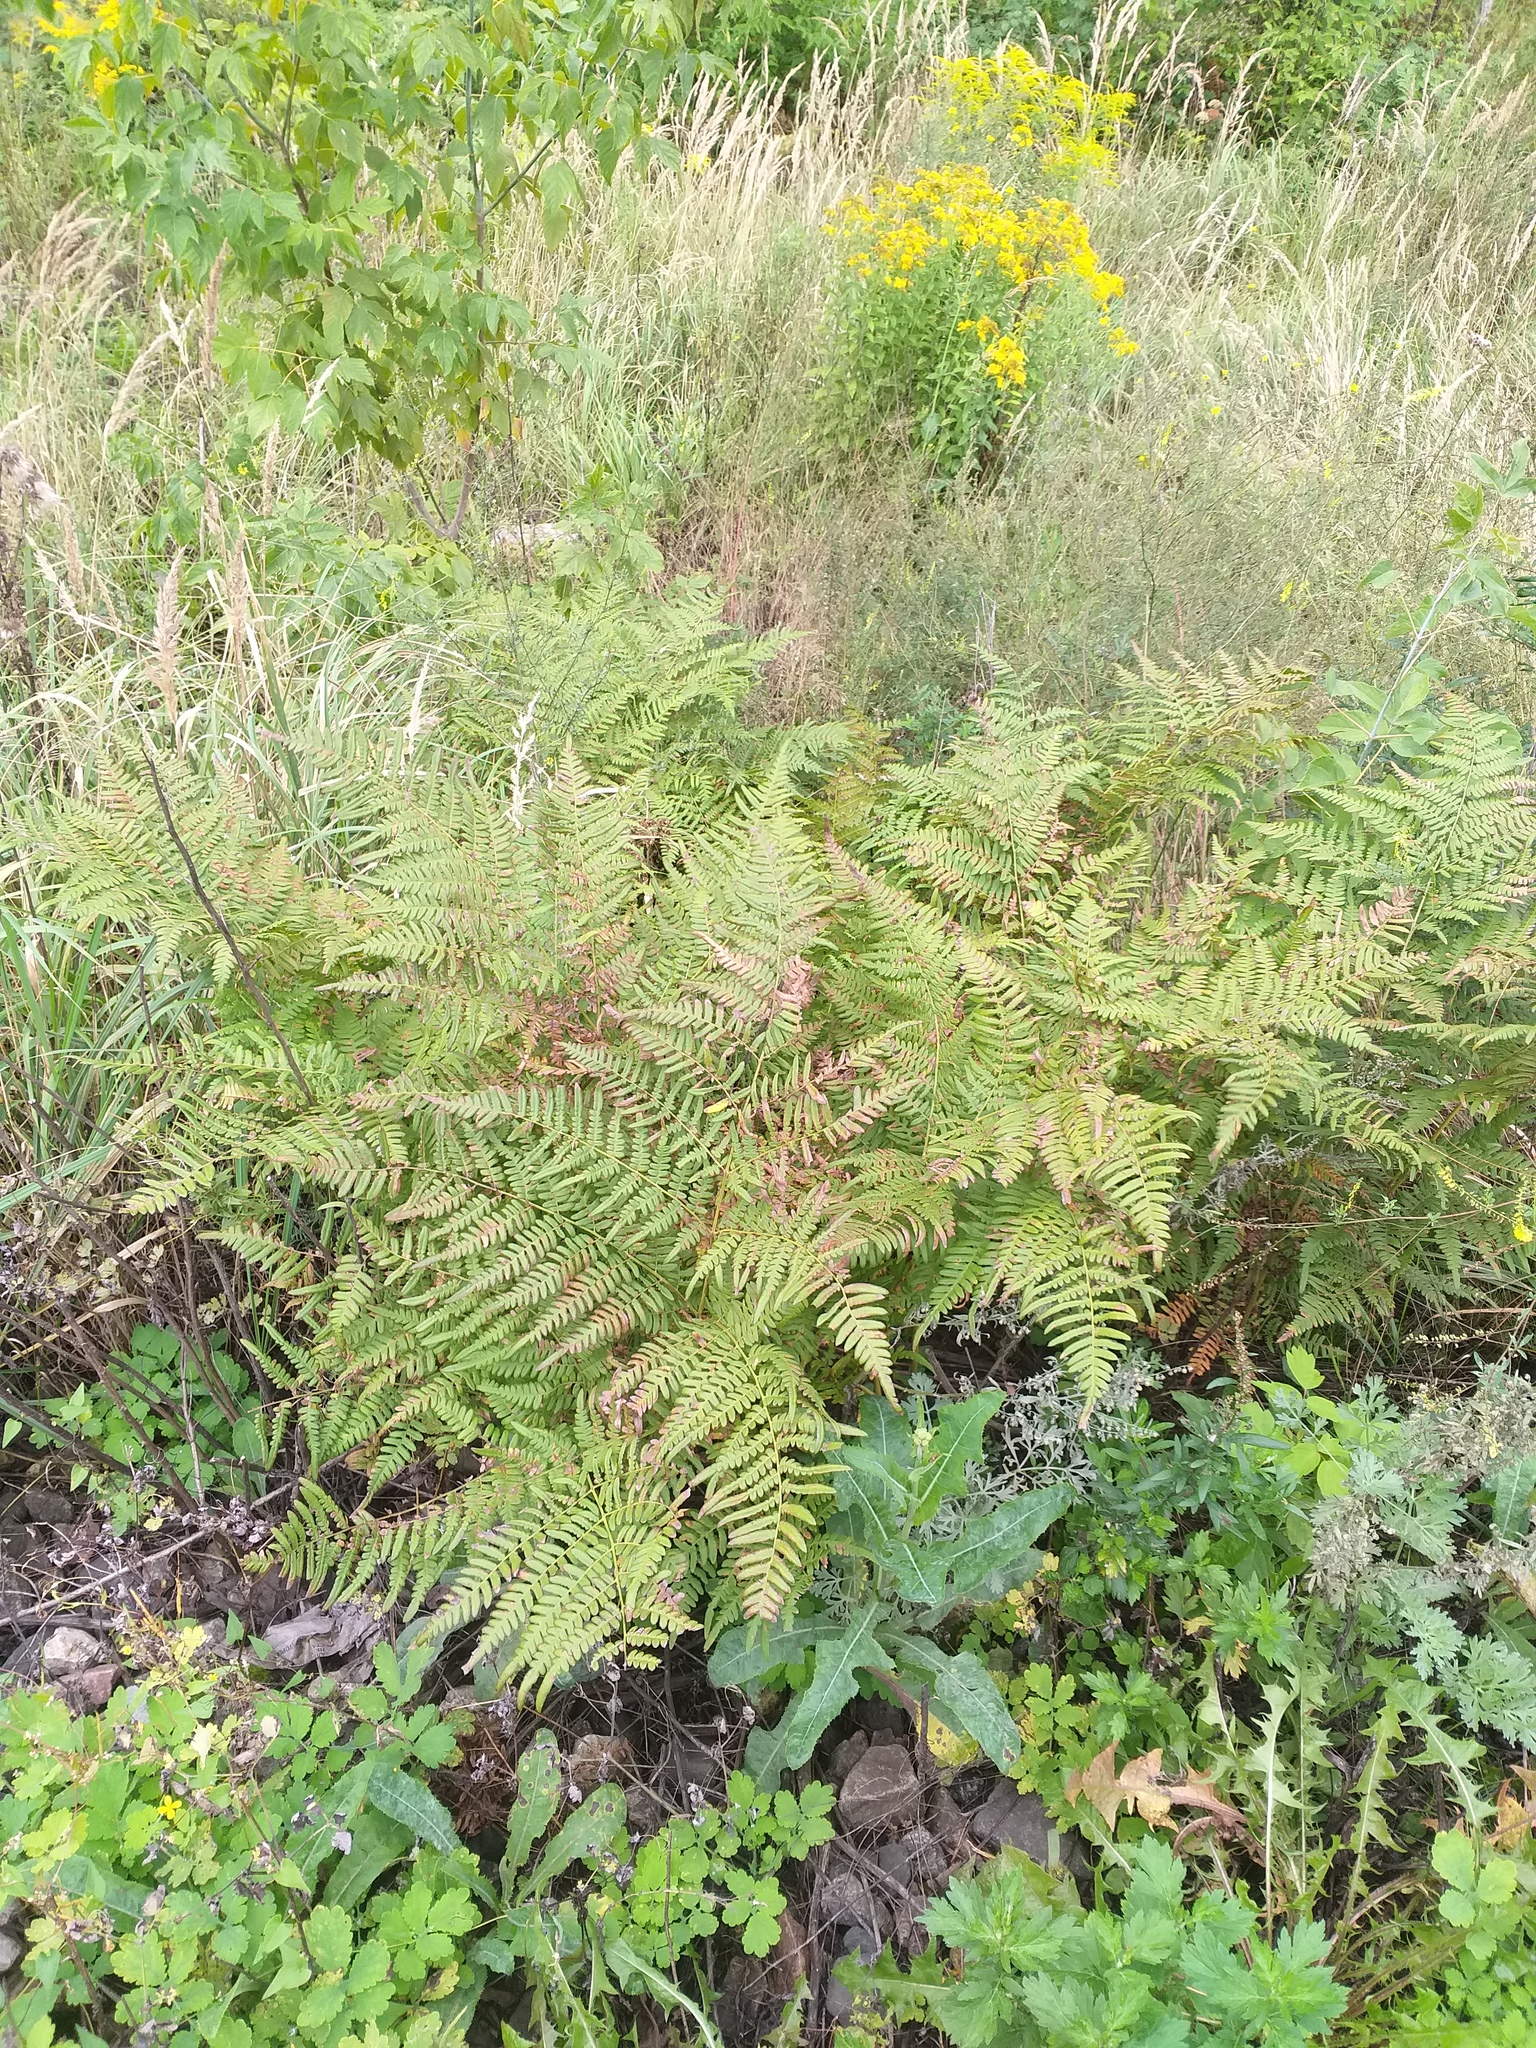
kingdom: Plantae
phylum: Tracheophyta
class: Polypodiopsida
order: Polypodiales
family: Dennstaedtiaceae
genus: Pteridium
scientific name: Pteridium aquilinum
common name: Bracken
